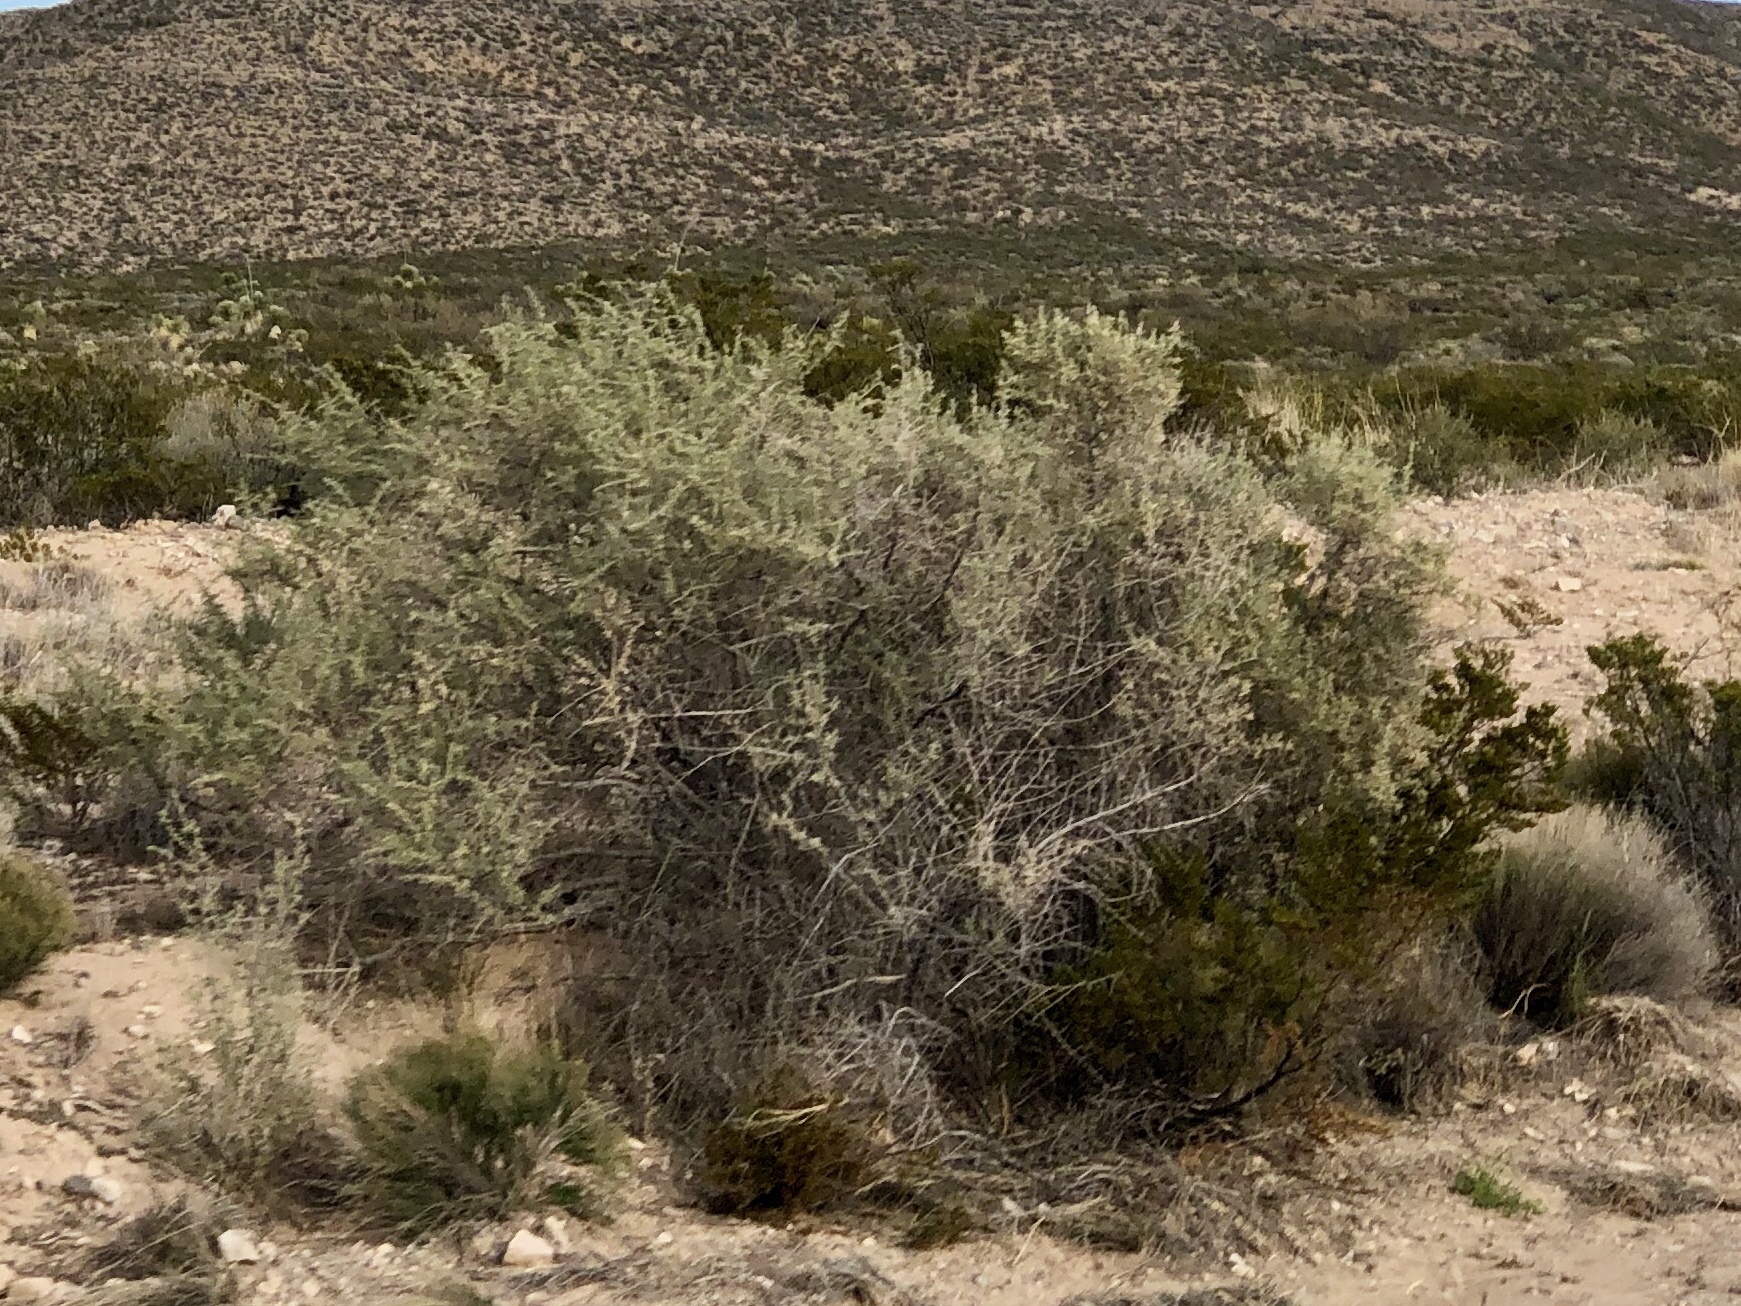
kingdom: Plantae
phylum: Tracheophyta
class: Magnoliopsida
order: Caryophyllales
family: Amaranthaceae
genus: Atriplex
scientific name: Atriplex canescens
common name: Four-wing saltbush
